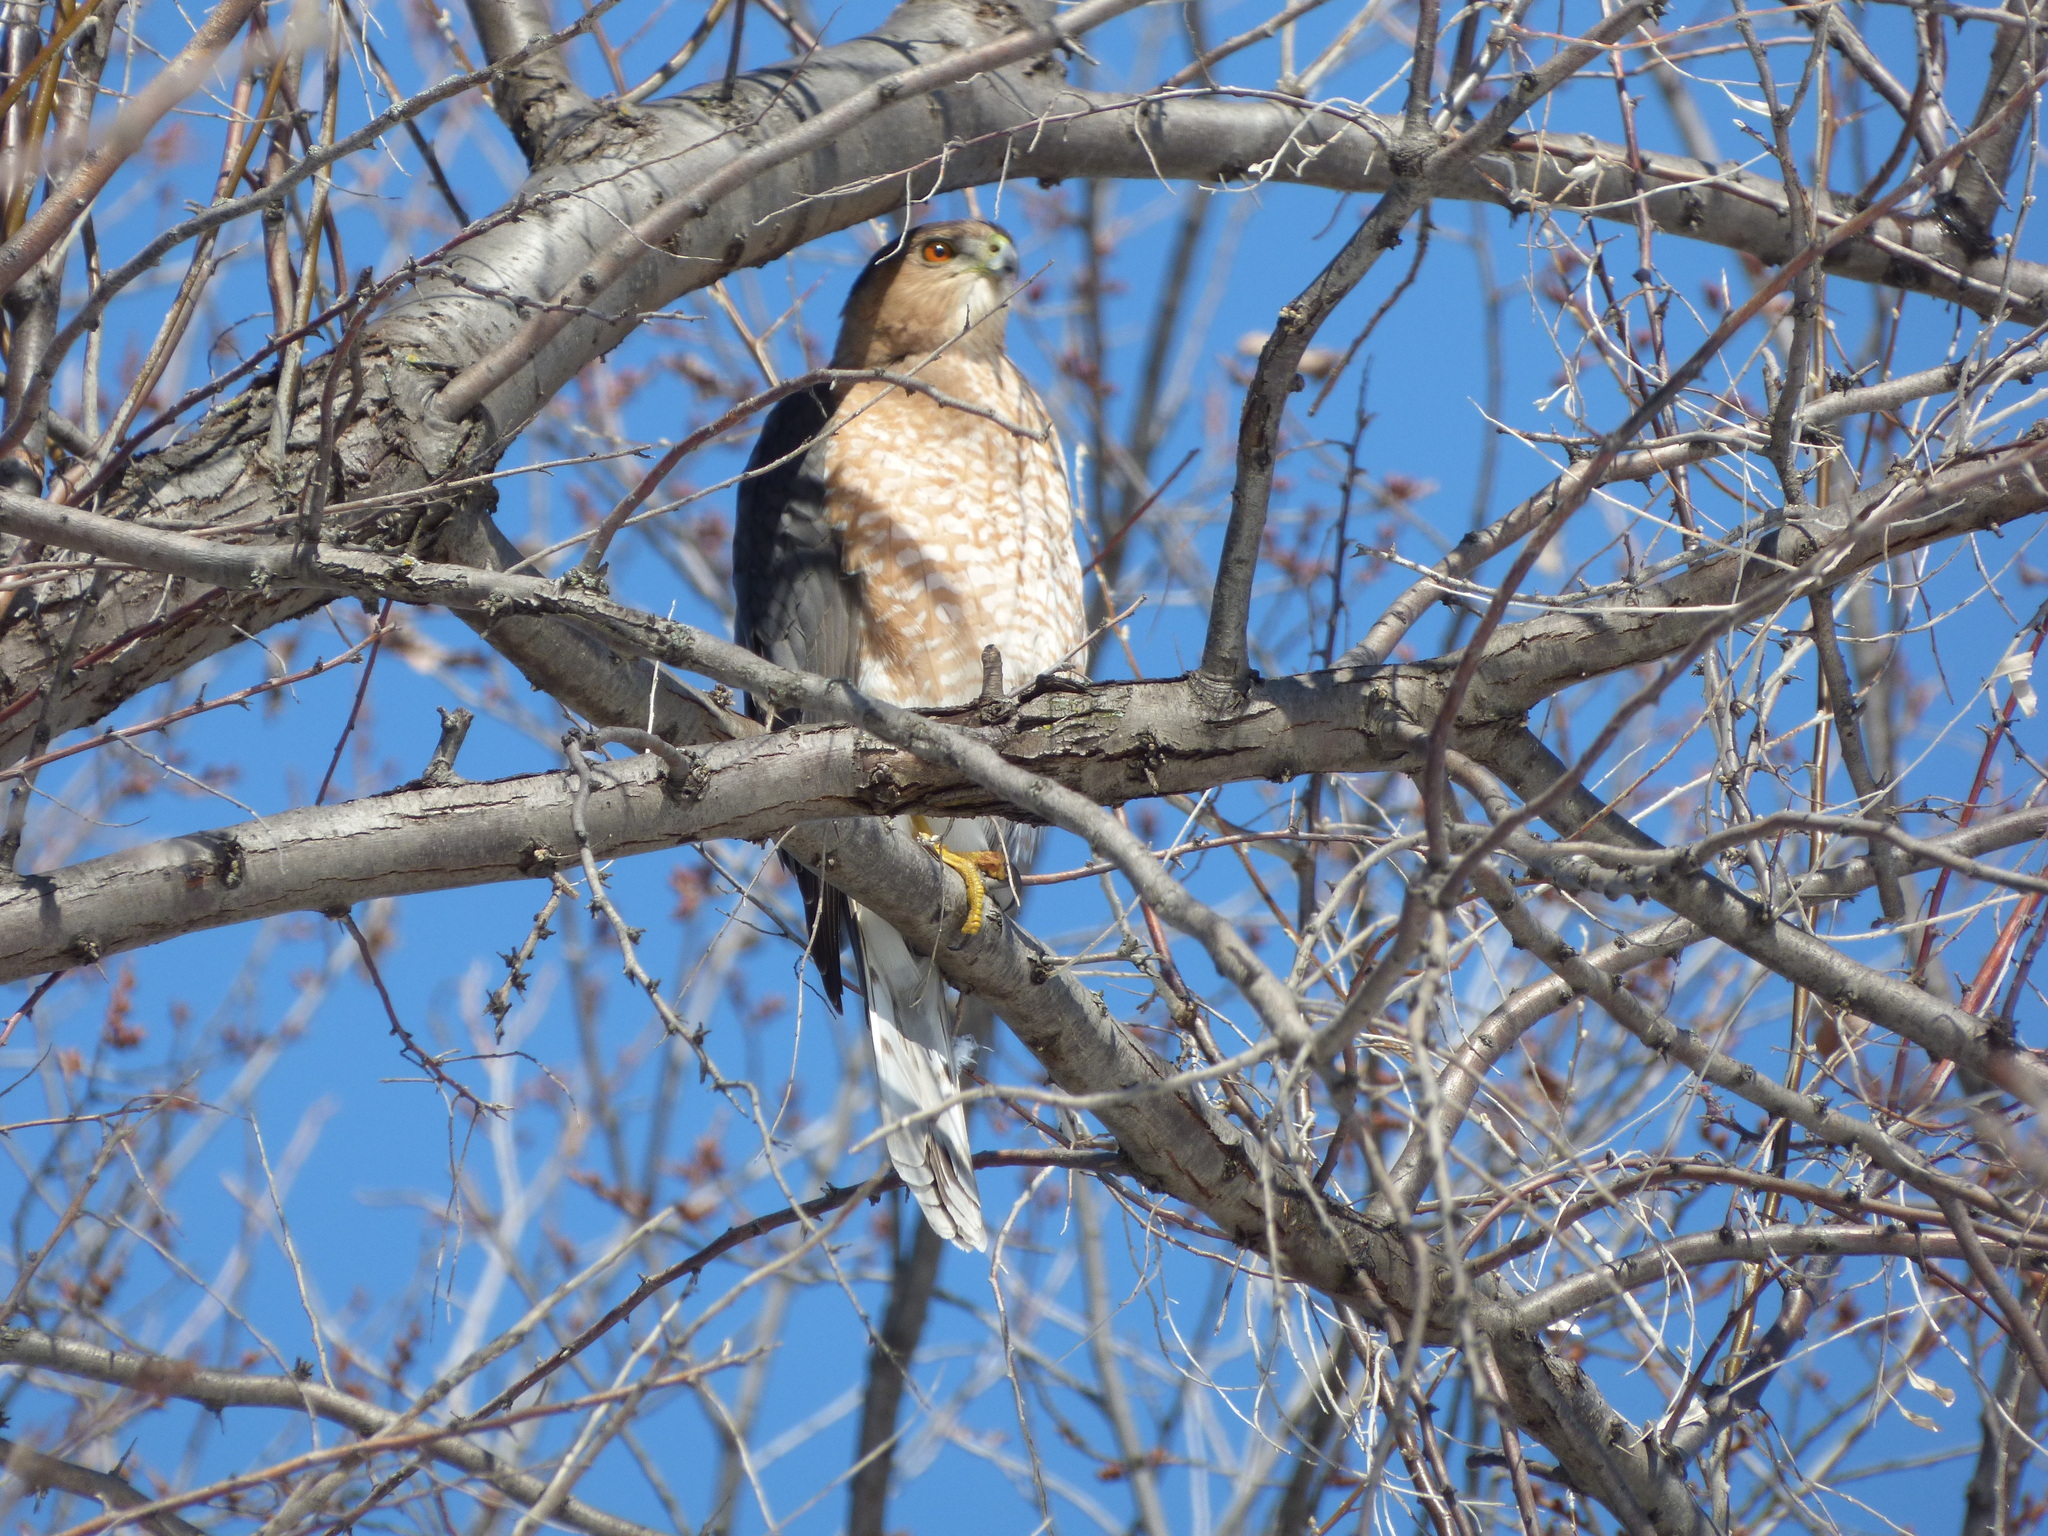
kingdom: Animalia
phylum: Chordata
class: Aves
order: Accipitriformes
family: Accipitridae
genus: Accipiter
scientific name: Accipiter cooperii
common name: Cooper's hawk
